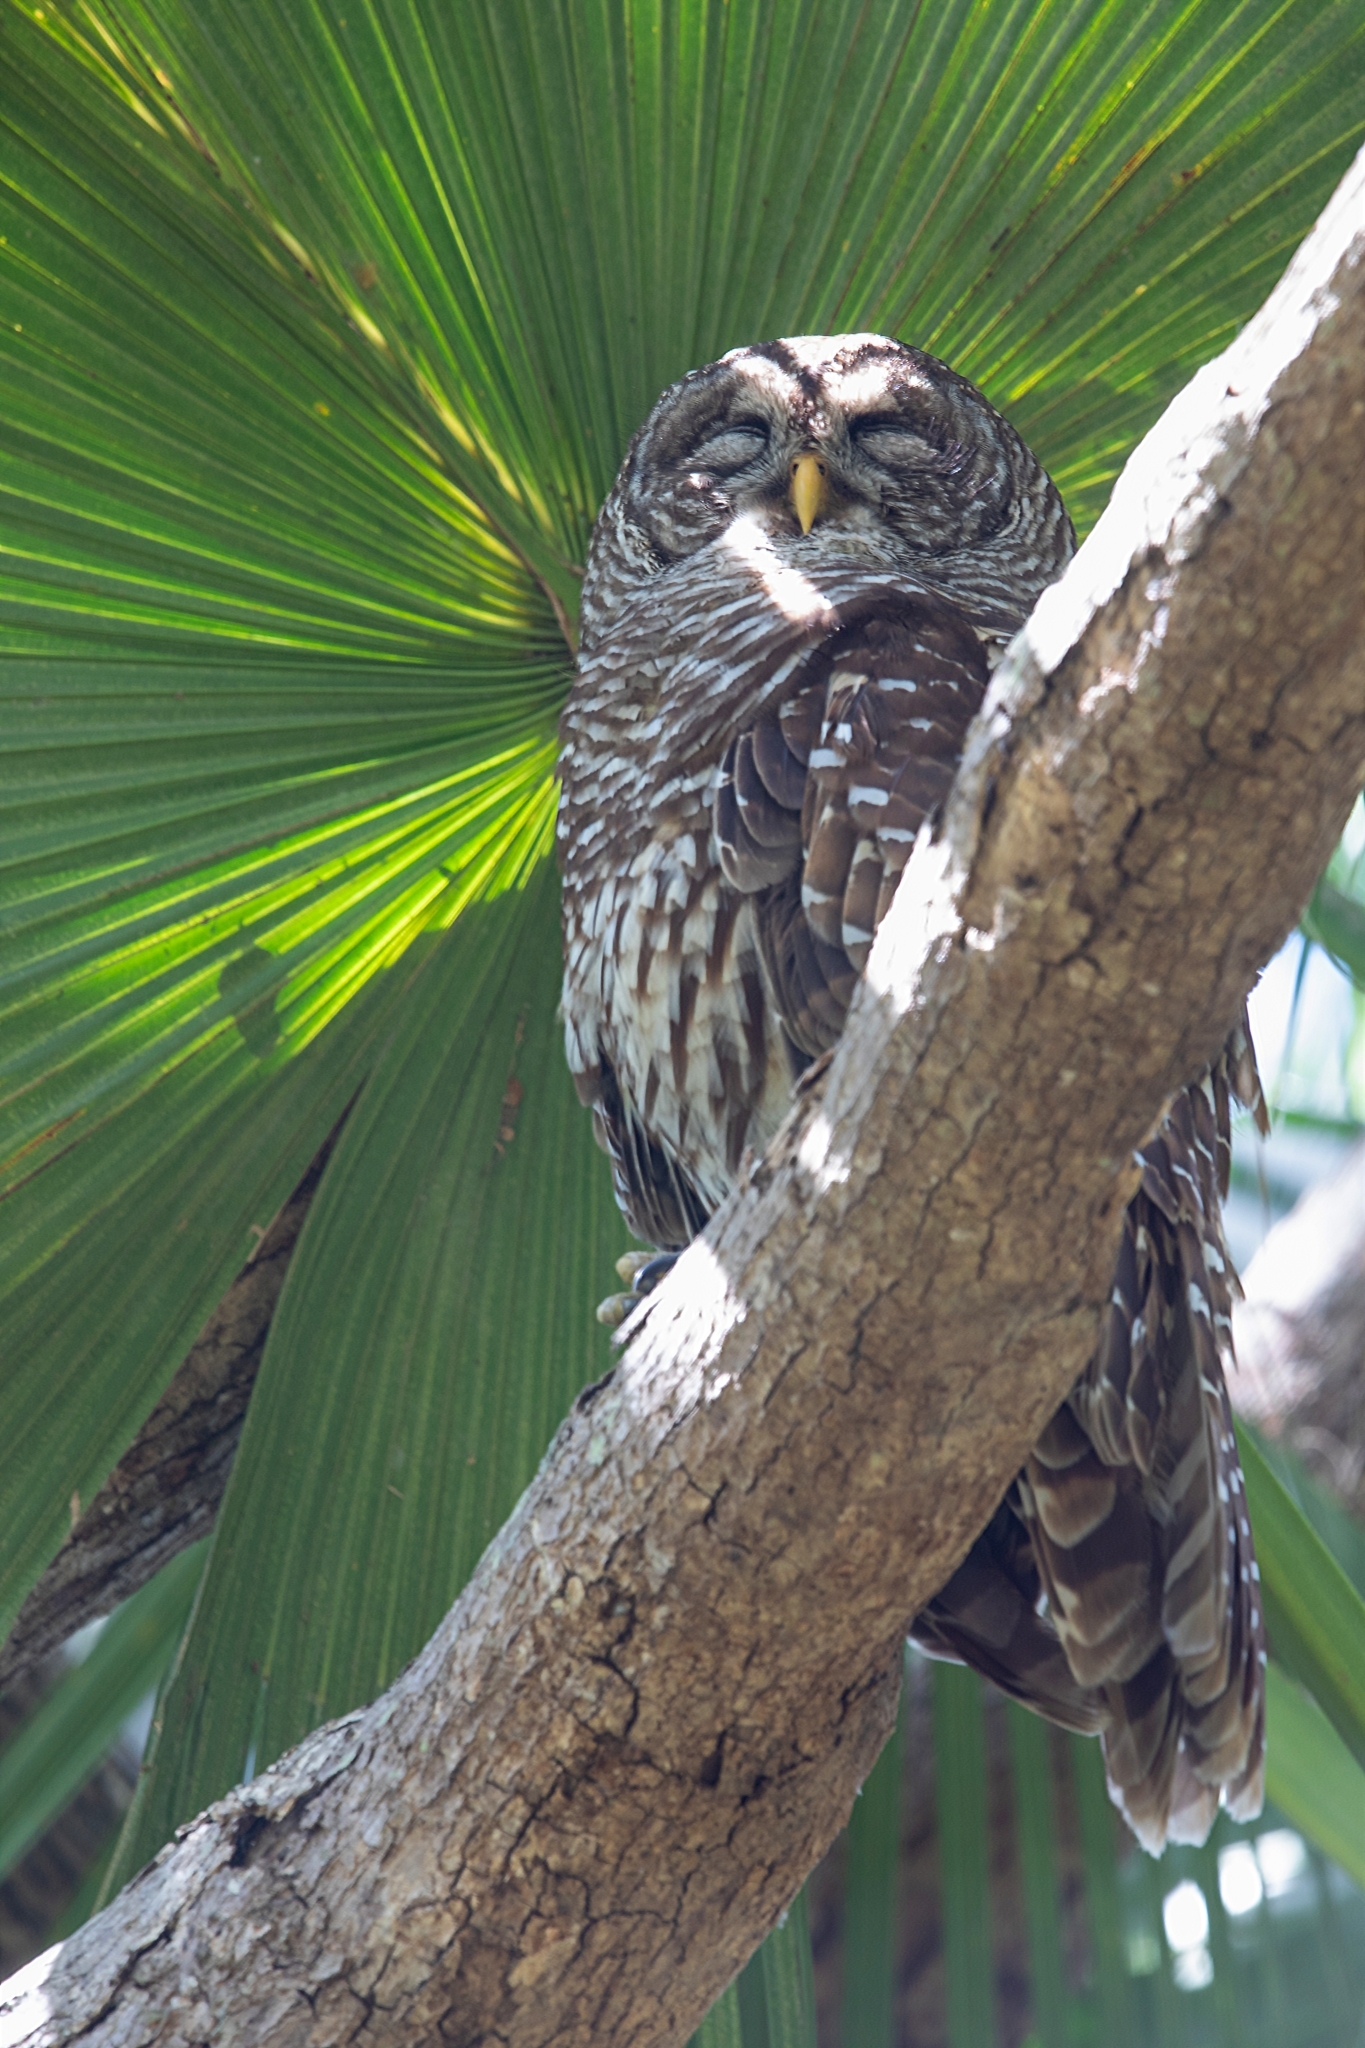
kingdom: Animalia
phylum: Chordata
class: Aves
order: Strigiformes
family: Strigidae
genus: Strix
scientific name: Strix varia
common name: Barred owl
